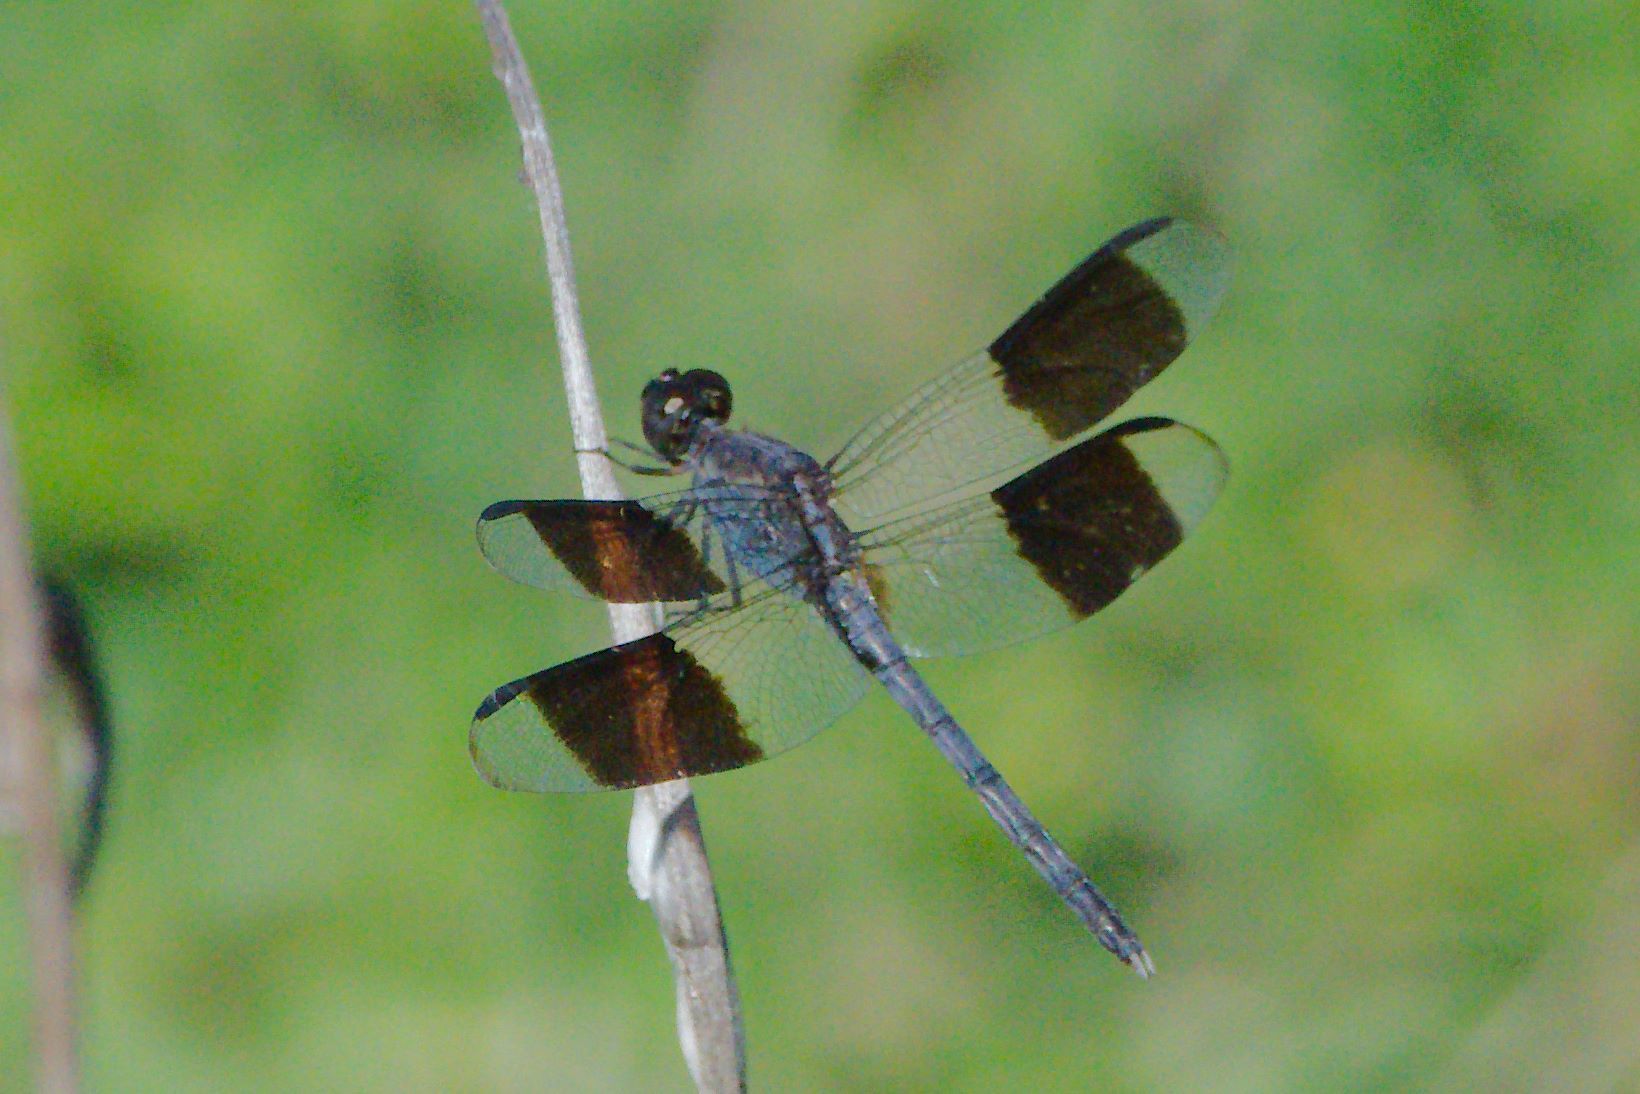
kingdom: Animalia
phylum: Arthropoda
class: Insecta
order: Odonata
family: Libellulidae
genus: Erythrodiplax
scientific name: Erythrodiplax umbrata
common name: Band-winged dragonlet
